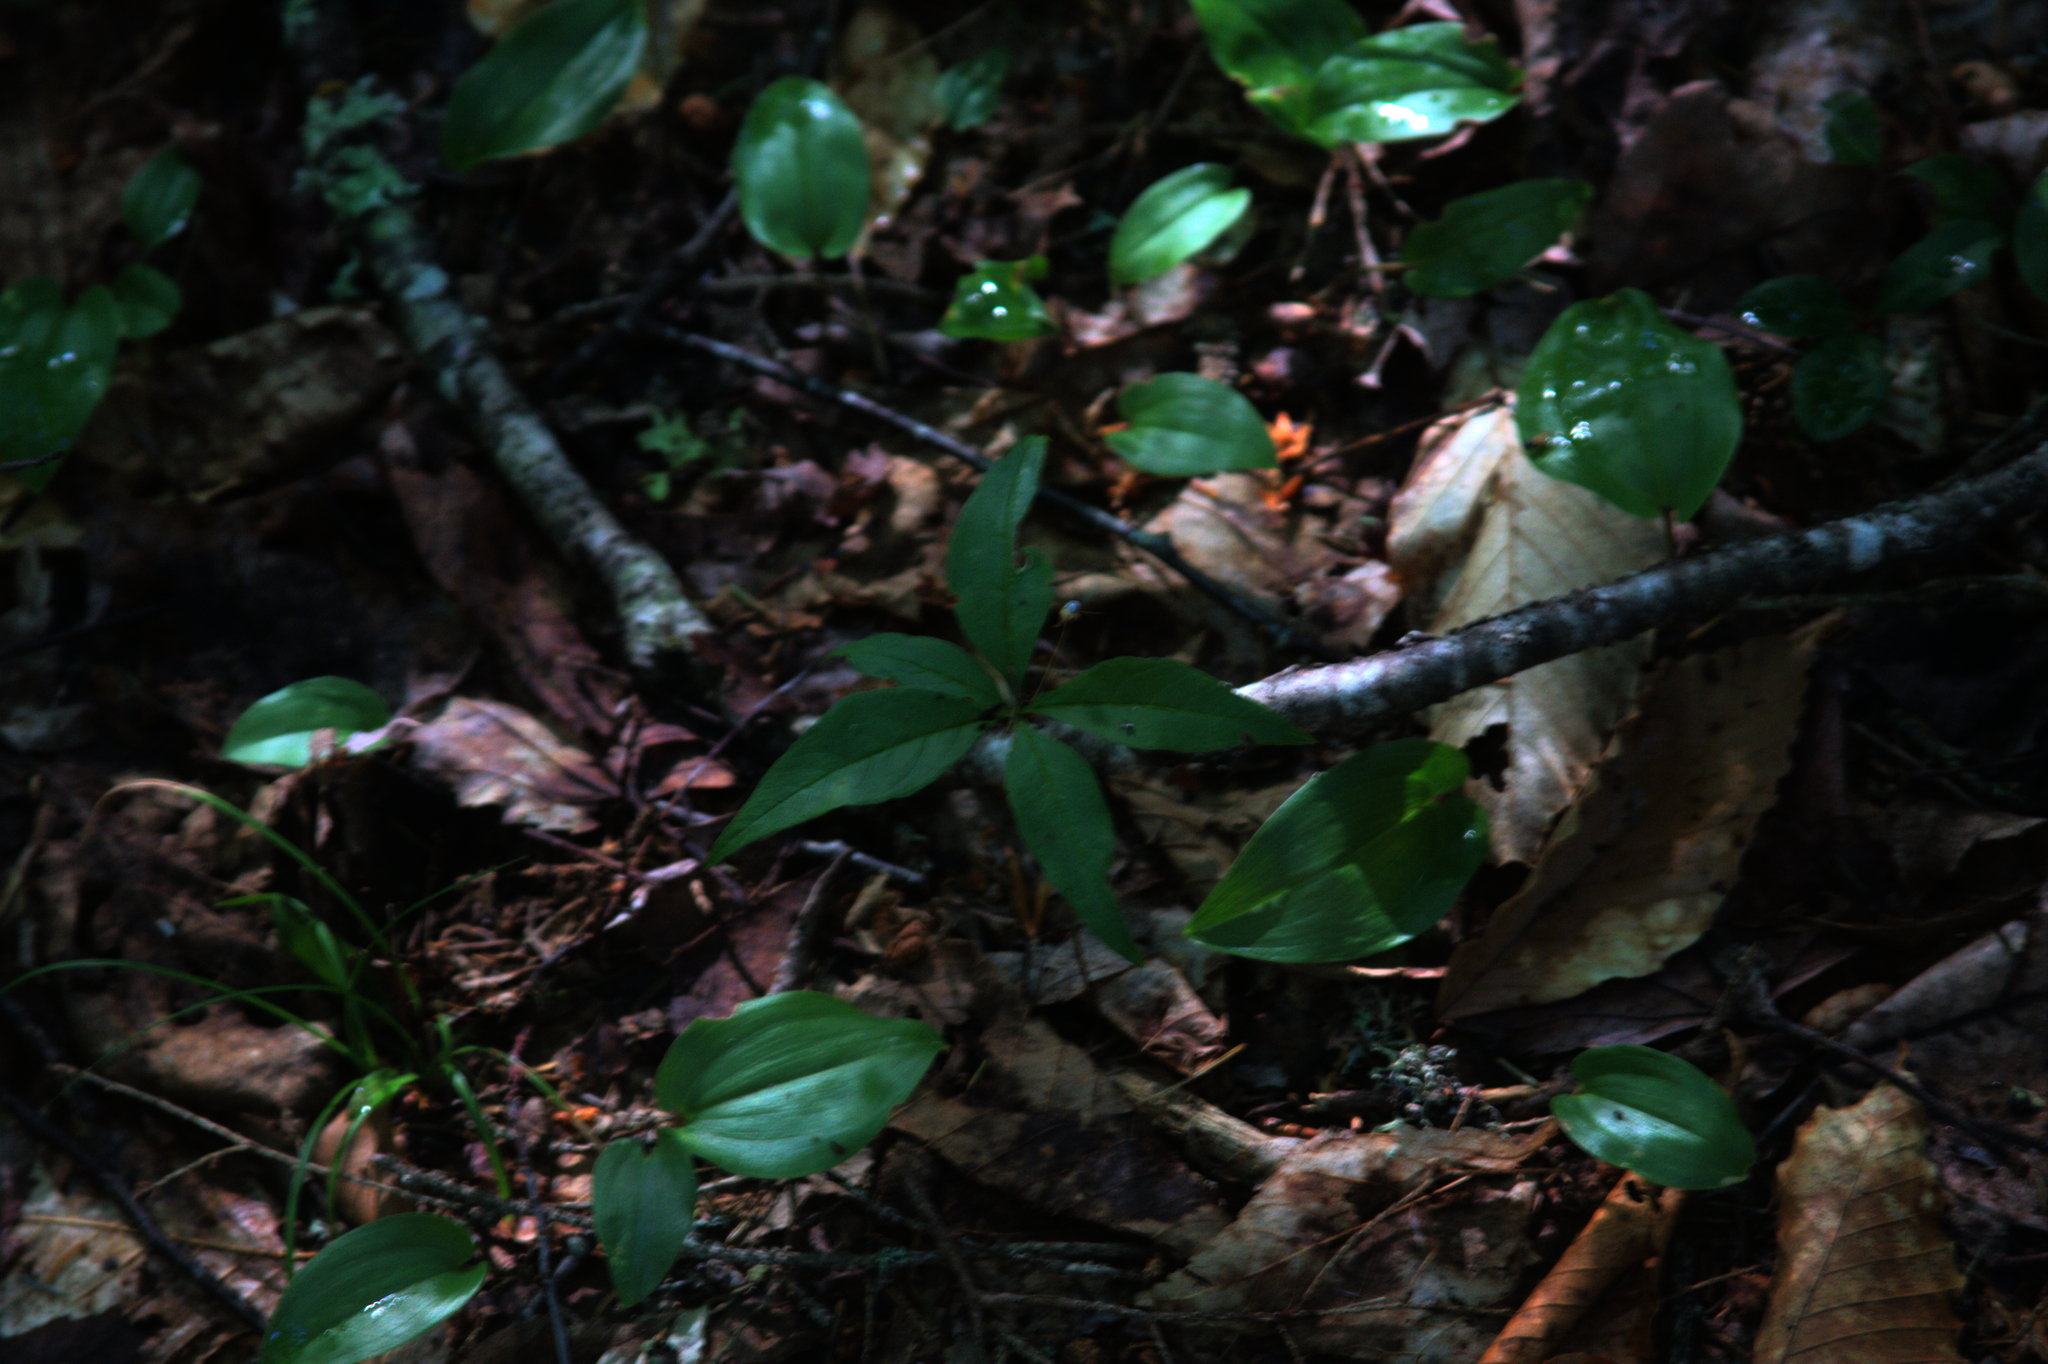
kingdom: Plantae
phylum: Tracheophyta
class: Magnoliopsida
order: Ericales
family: Primulaceae
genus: Lysimachia
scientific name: Lysimachia borealis
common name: American starflower
